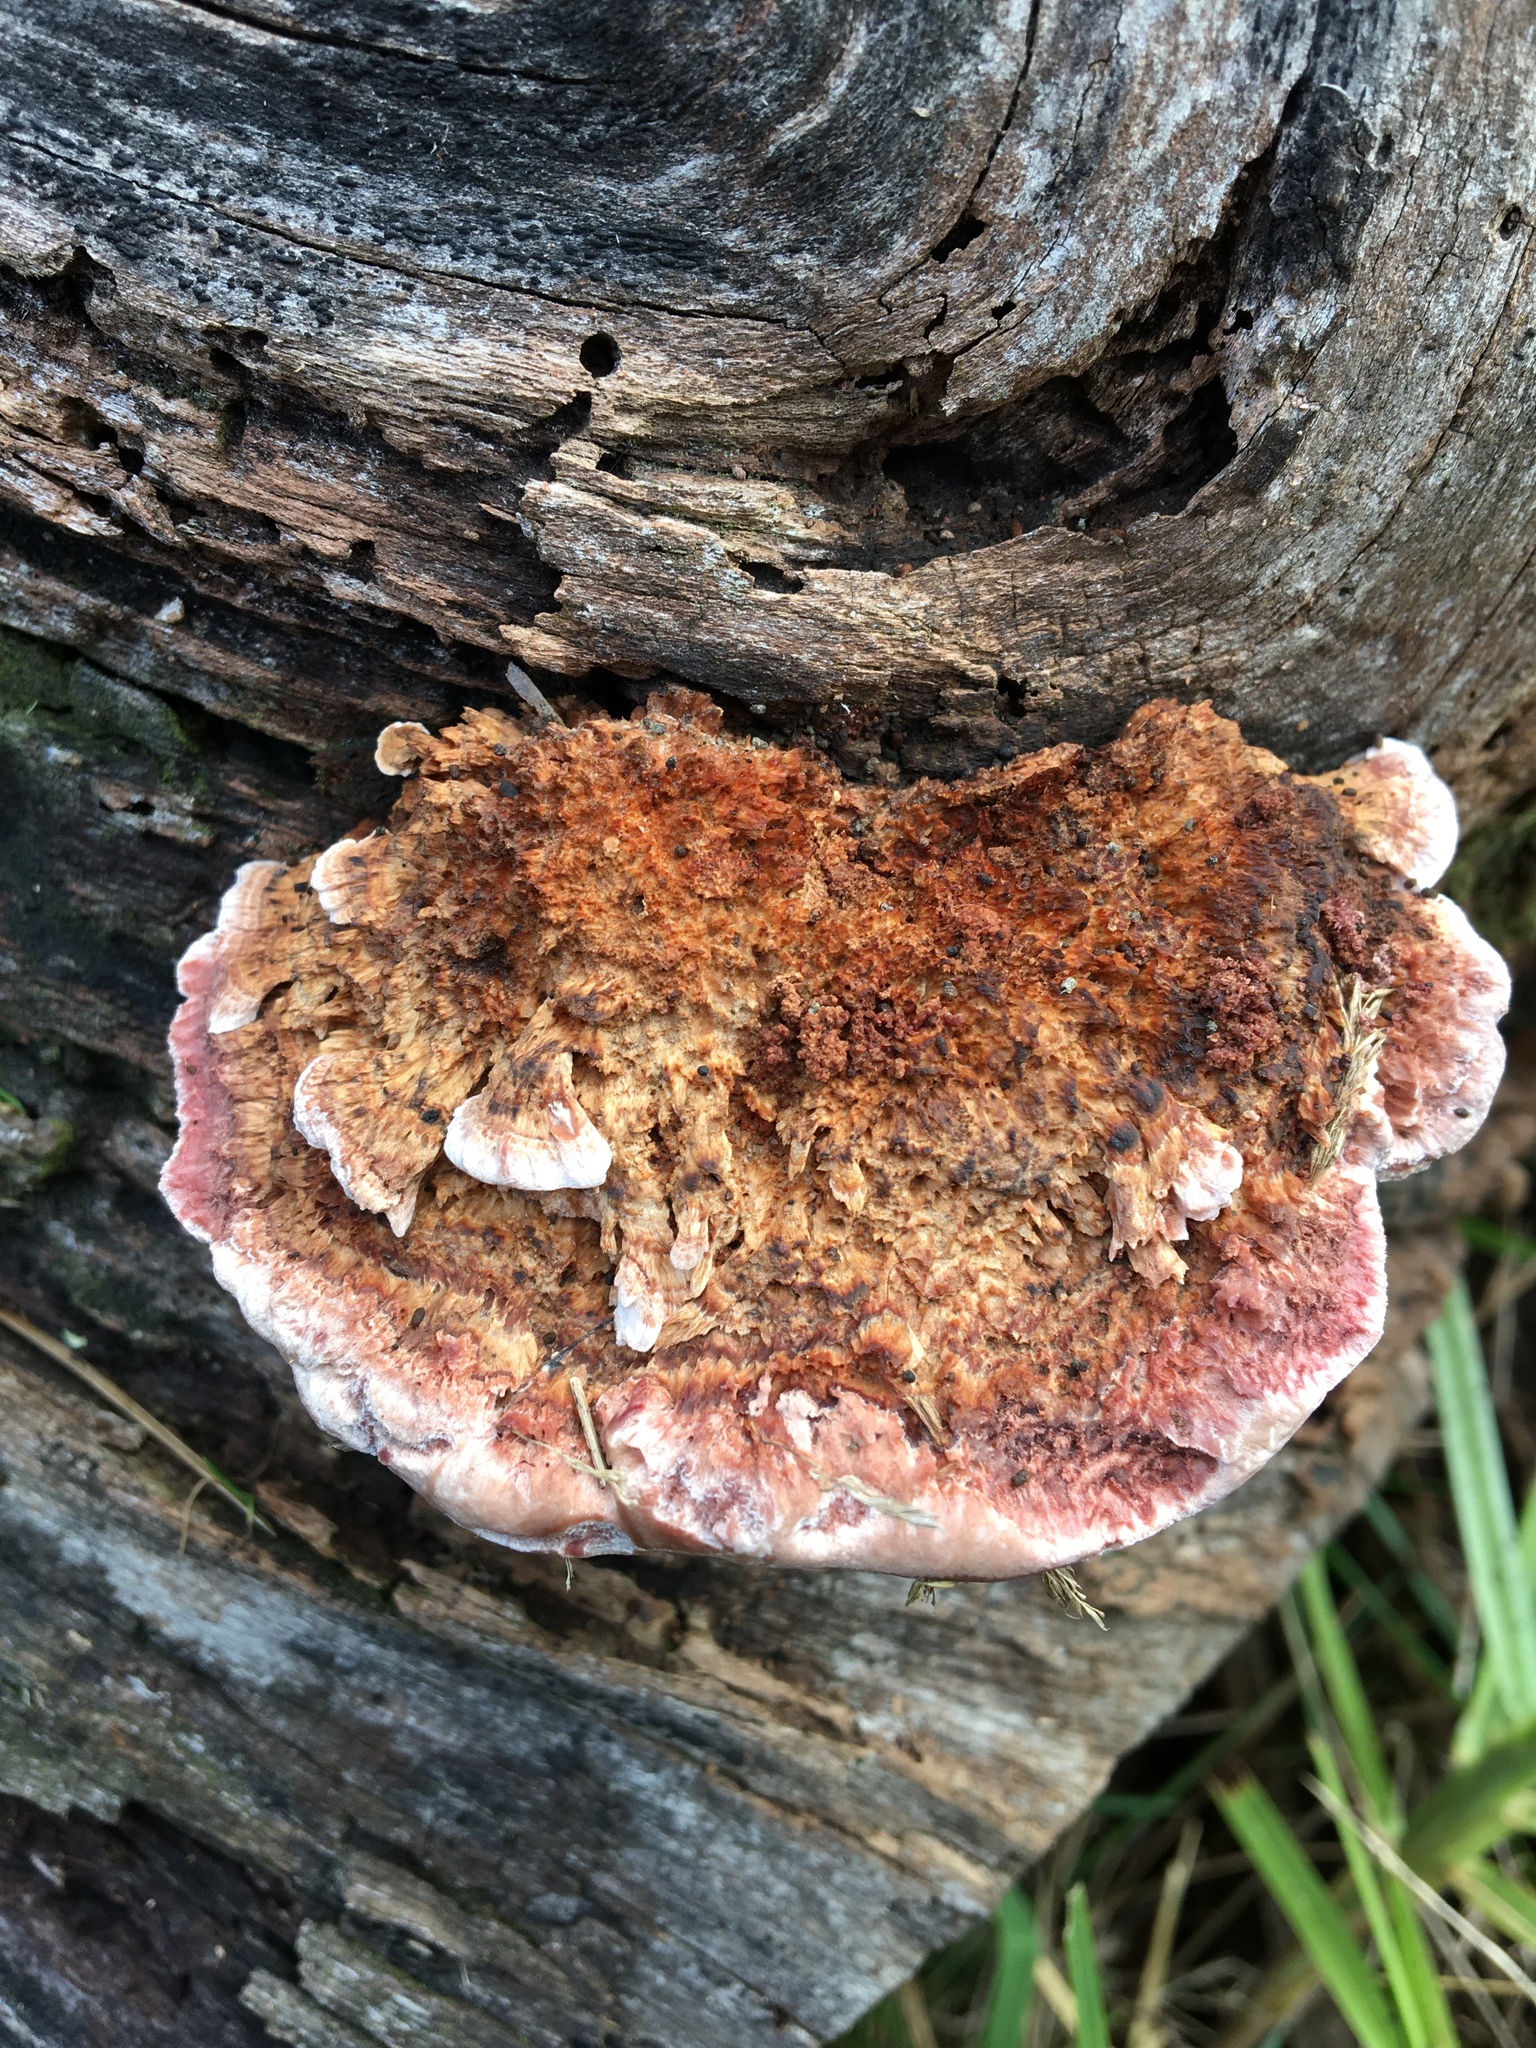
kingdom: Fungi
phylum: Basidiomycota
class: Agaricomycetes
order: Polyporales
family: Fomitopsidaceae
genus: Rhodofomitopsis
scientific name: Rhodofomitopsis lilacinogilva
